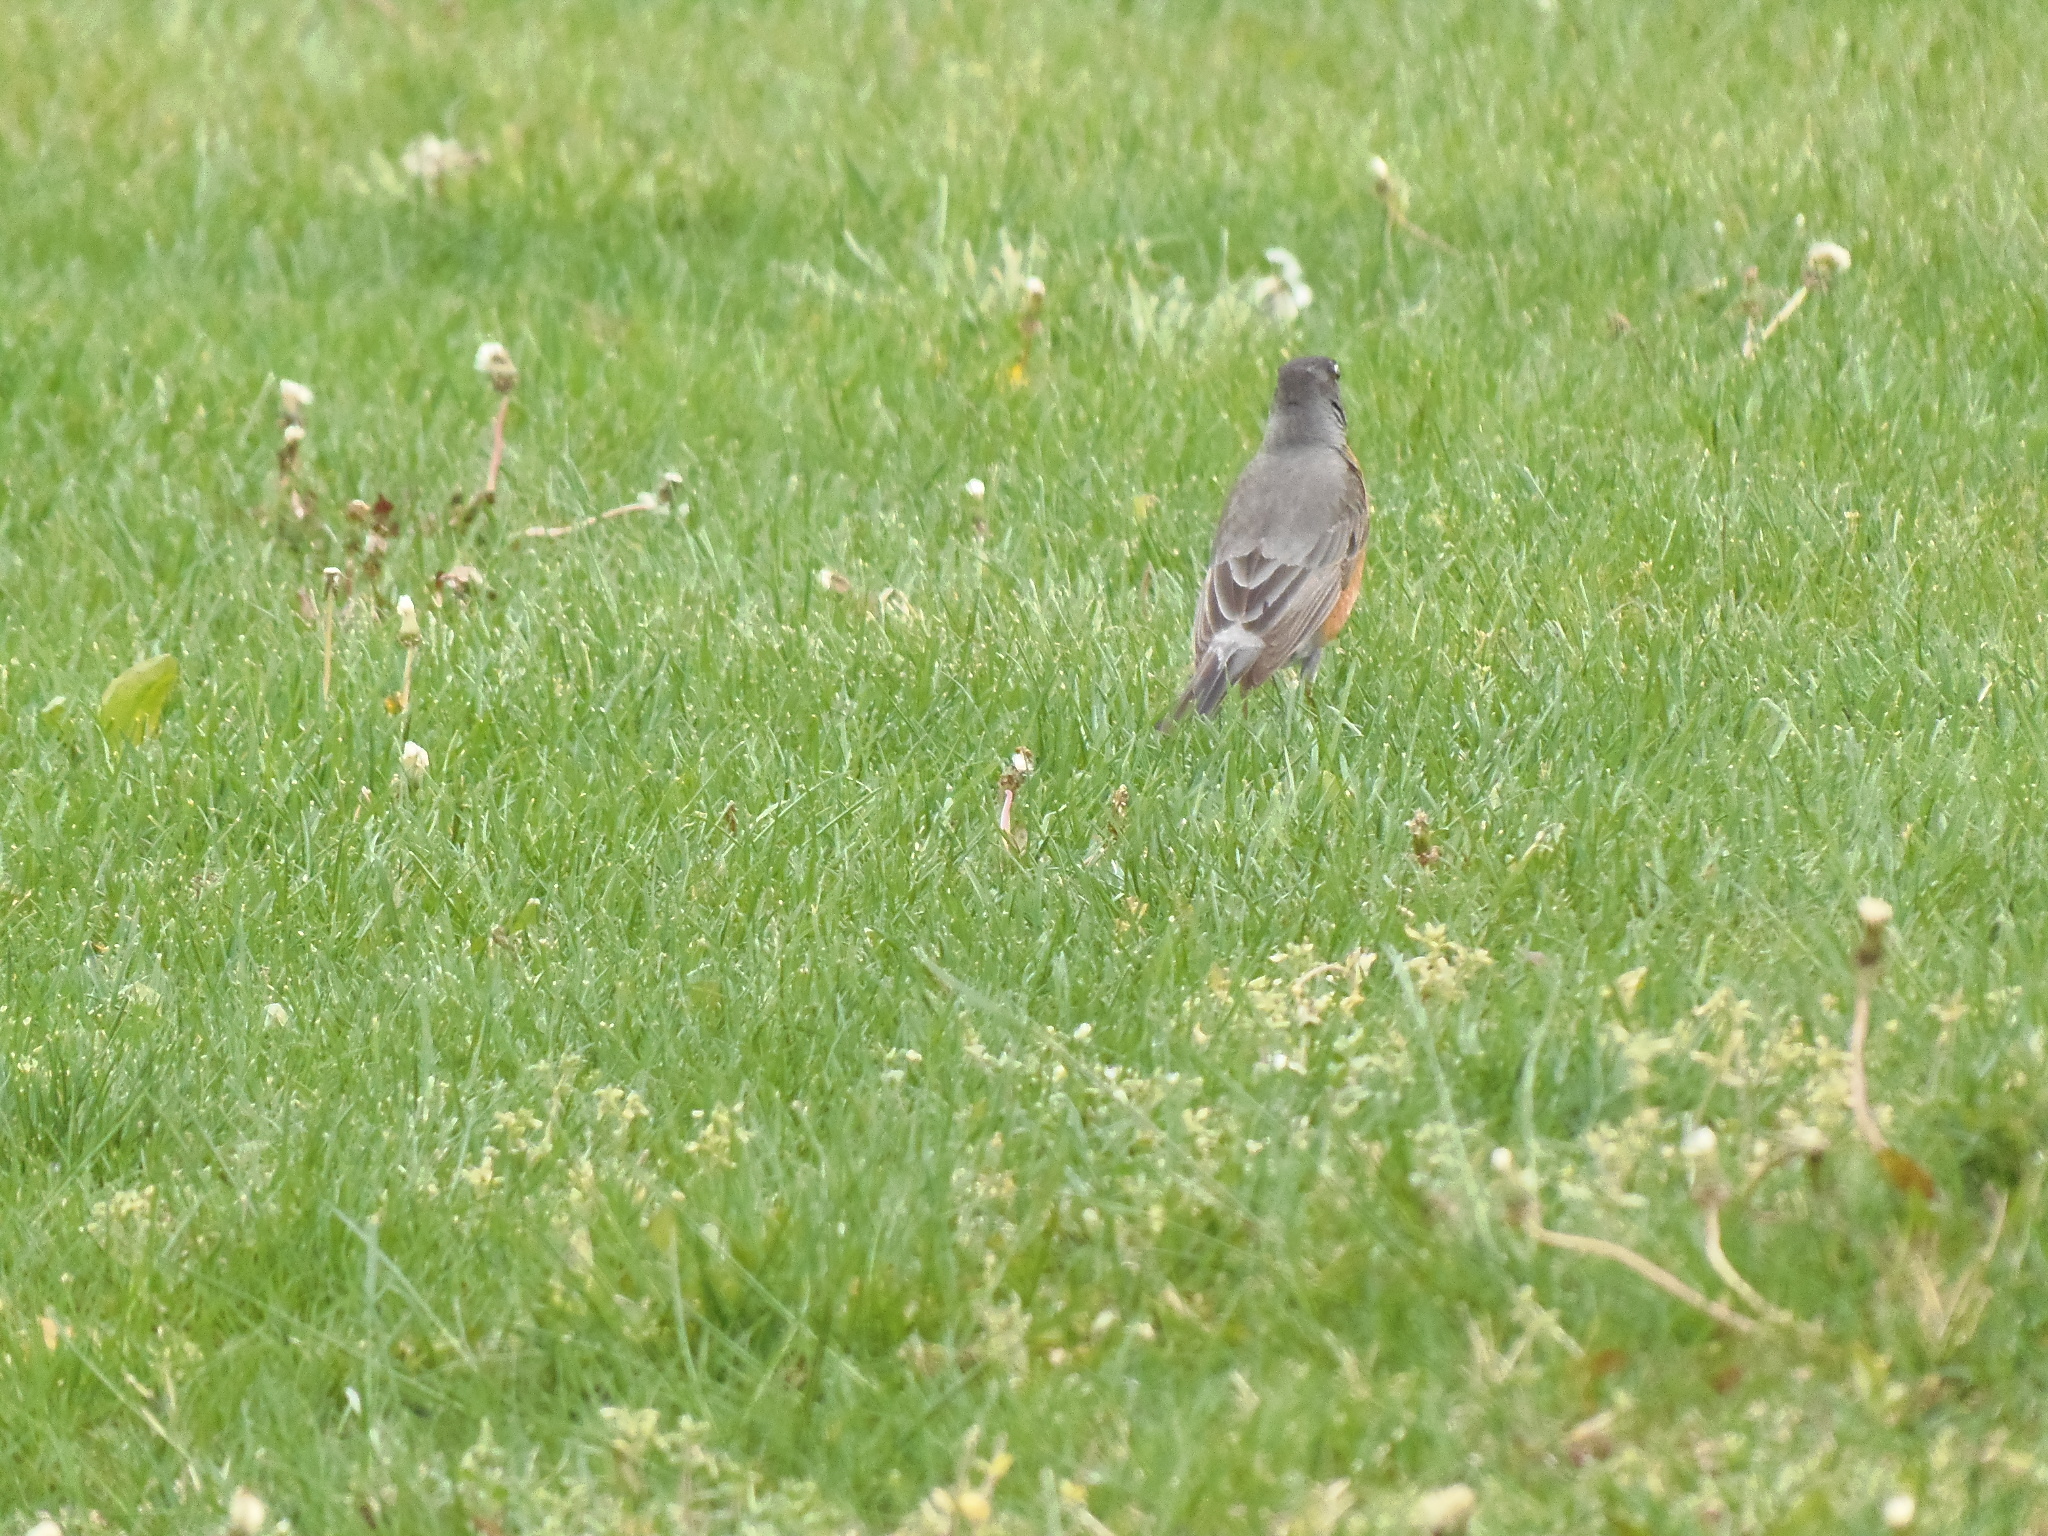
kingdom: Animalia
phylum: Chordata
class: Aves
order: Passeriformes
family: Turdidae
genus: Turdus
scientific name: Turdus migratorius
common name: American robin
